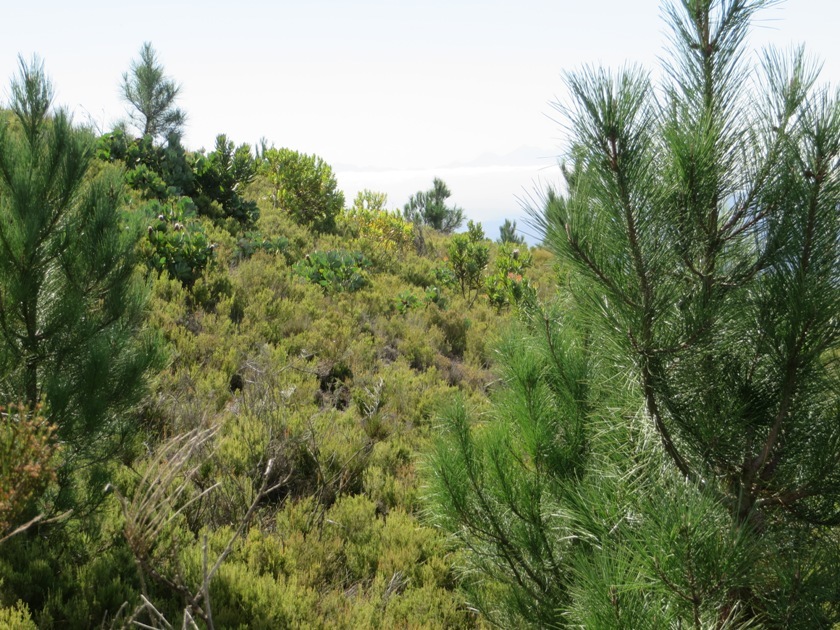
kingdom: Plantae
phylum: Tracheophyta
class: Magnoliopsida
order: Proteales
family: Proteaceae
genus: Protea
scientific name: Protea grandiceps
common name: Red sugarbush
